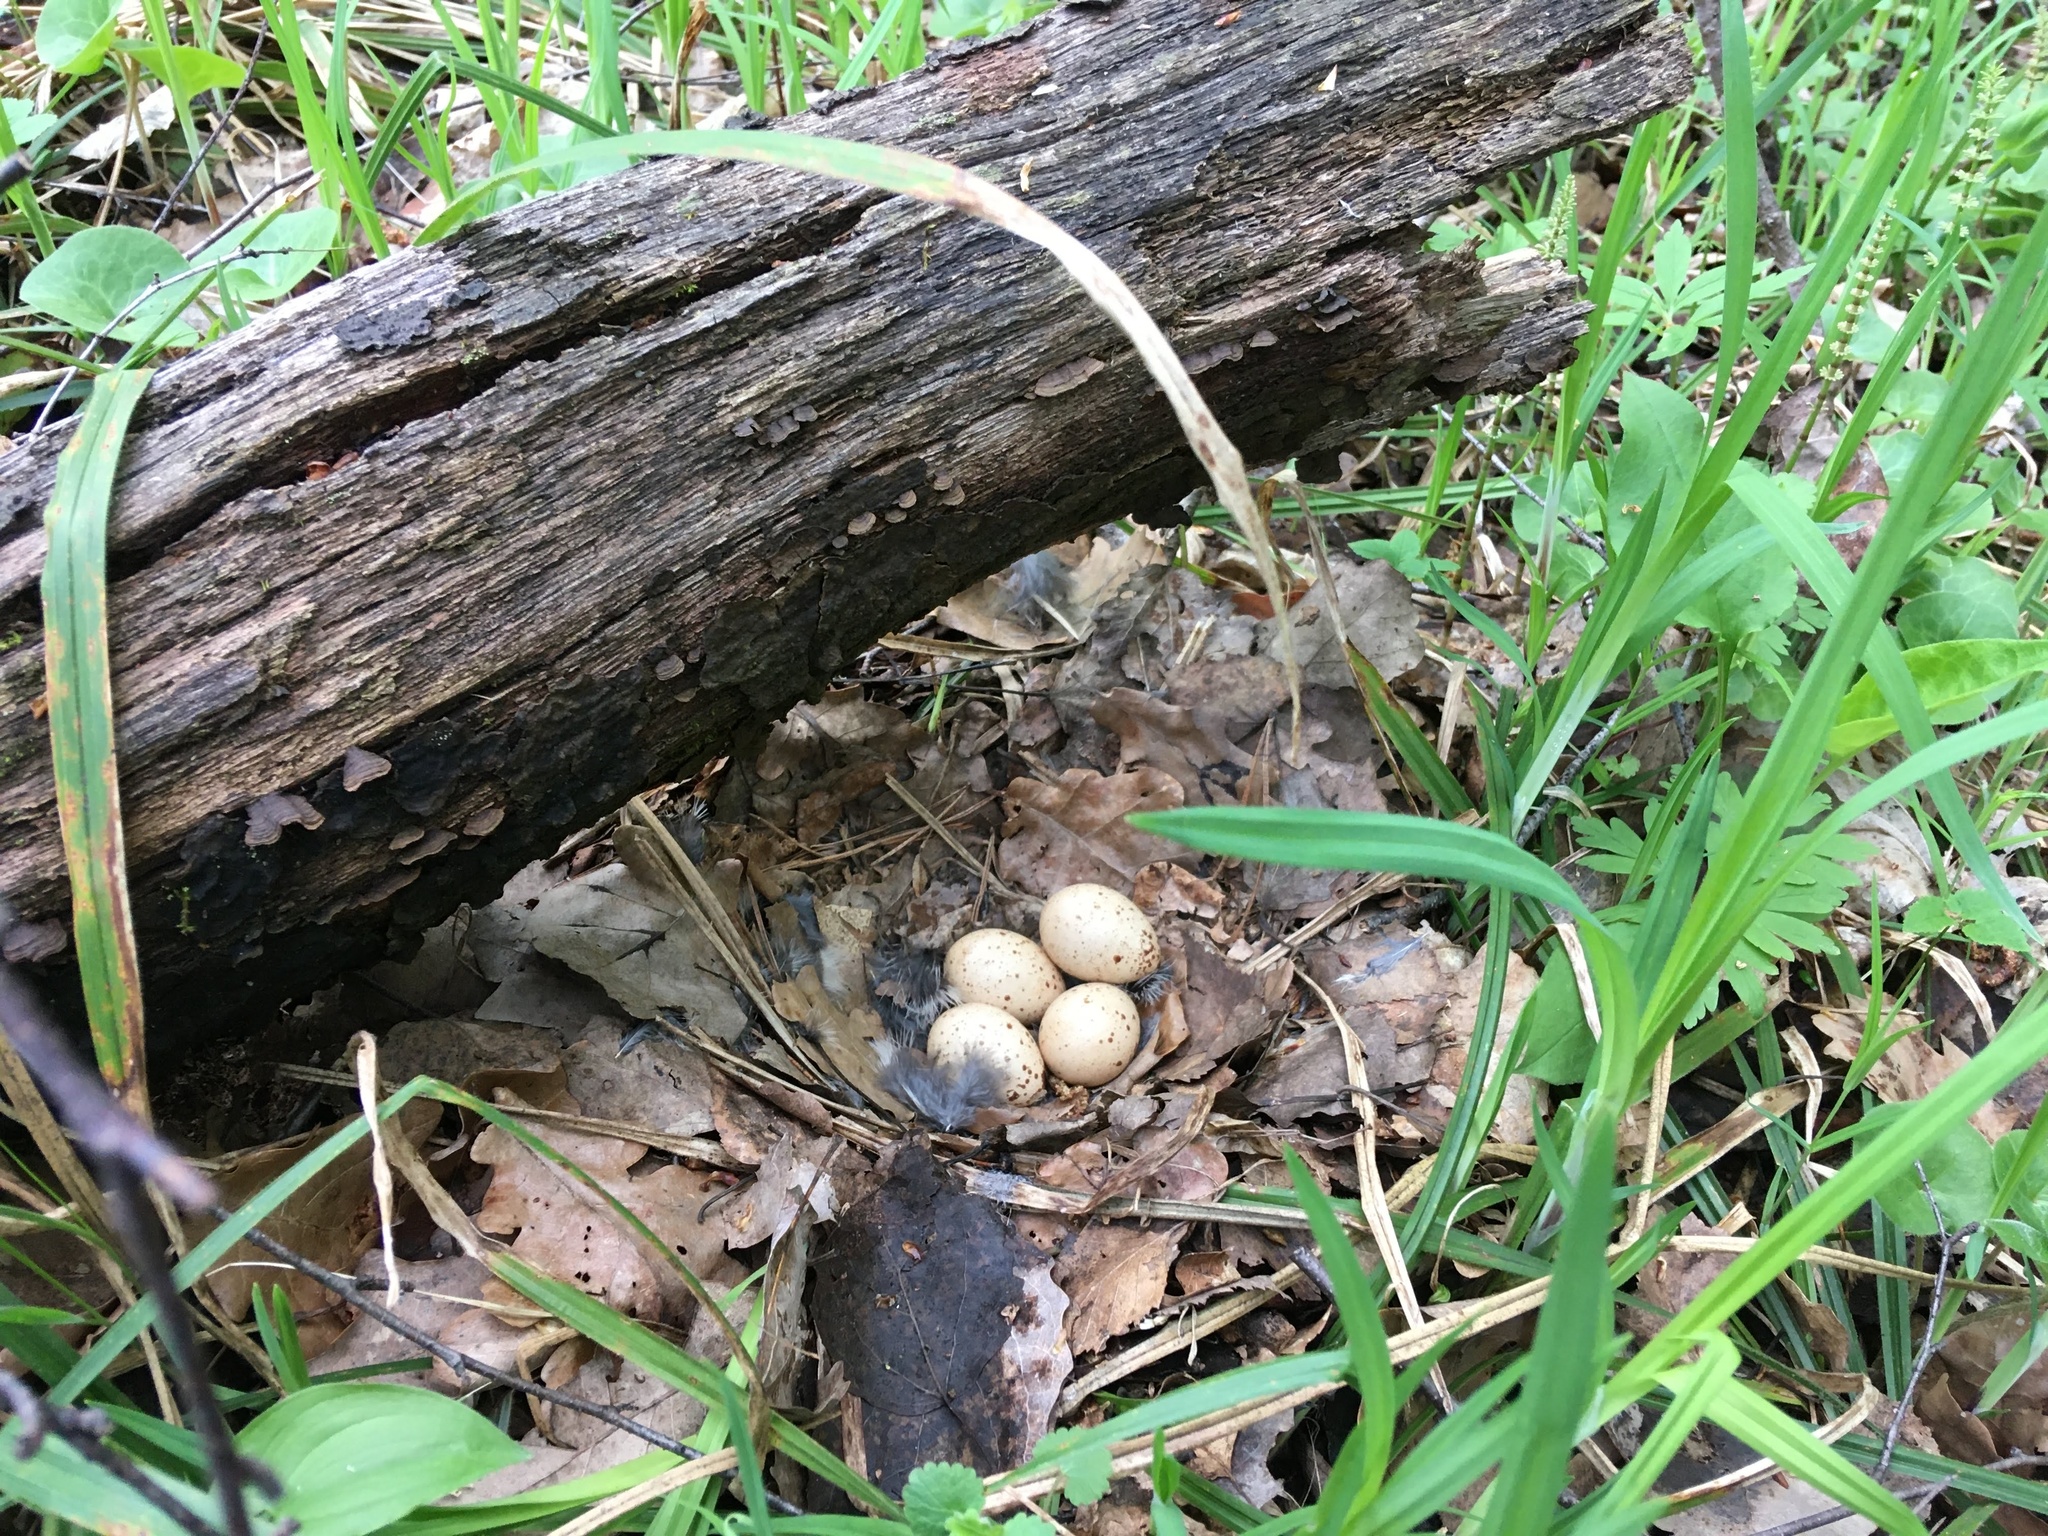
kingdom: Animalia
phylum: Chordata
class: Aves
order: Galliformes
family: Phasianidae
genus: Tetrastes
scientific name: Tetrastes bonasia
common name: Hazel grouse
